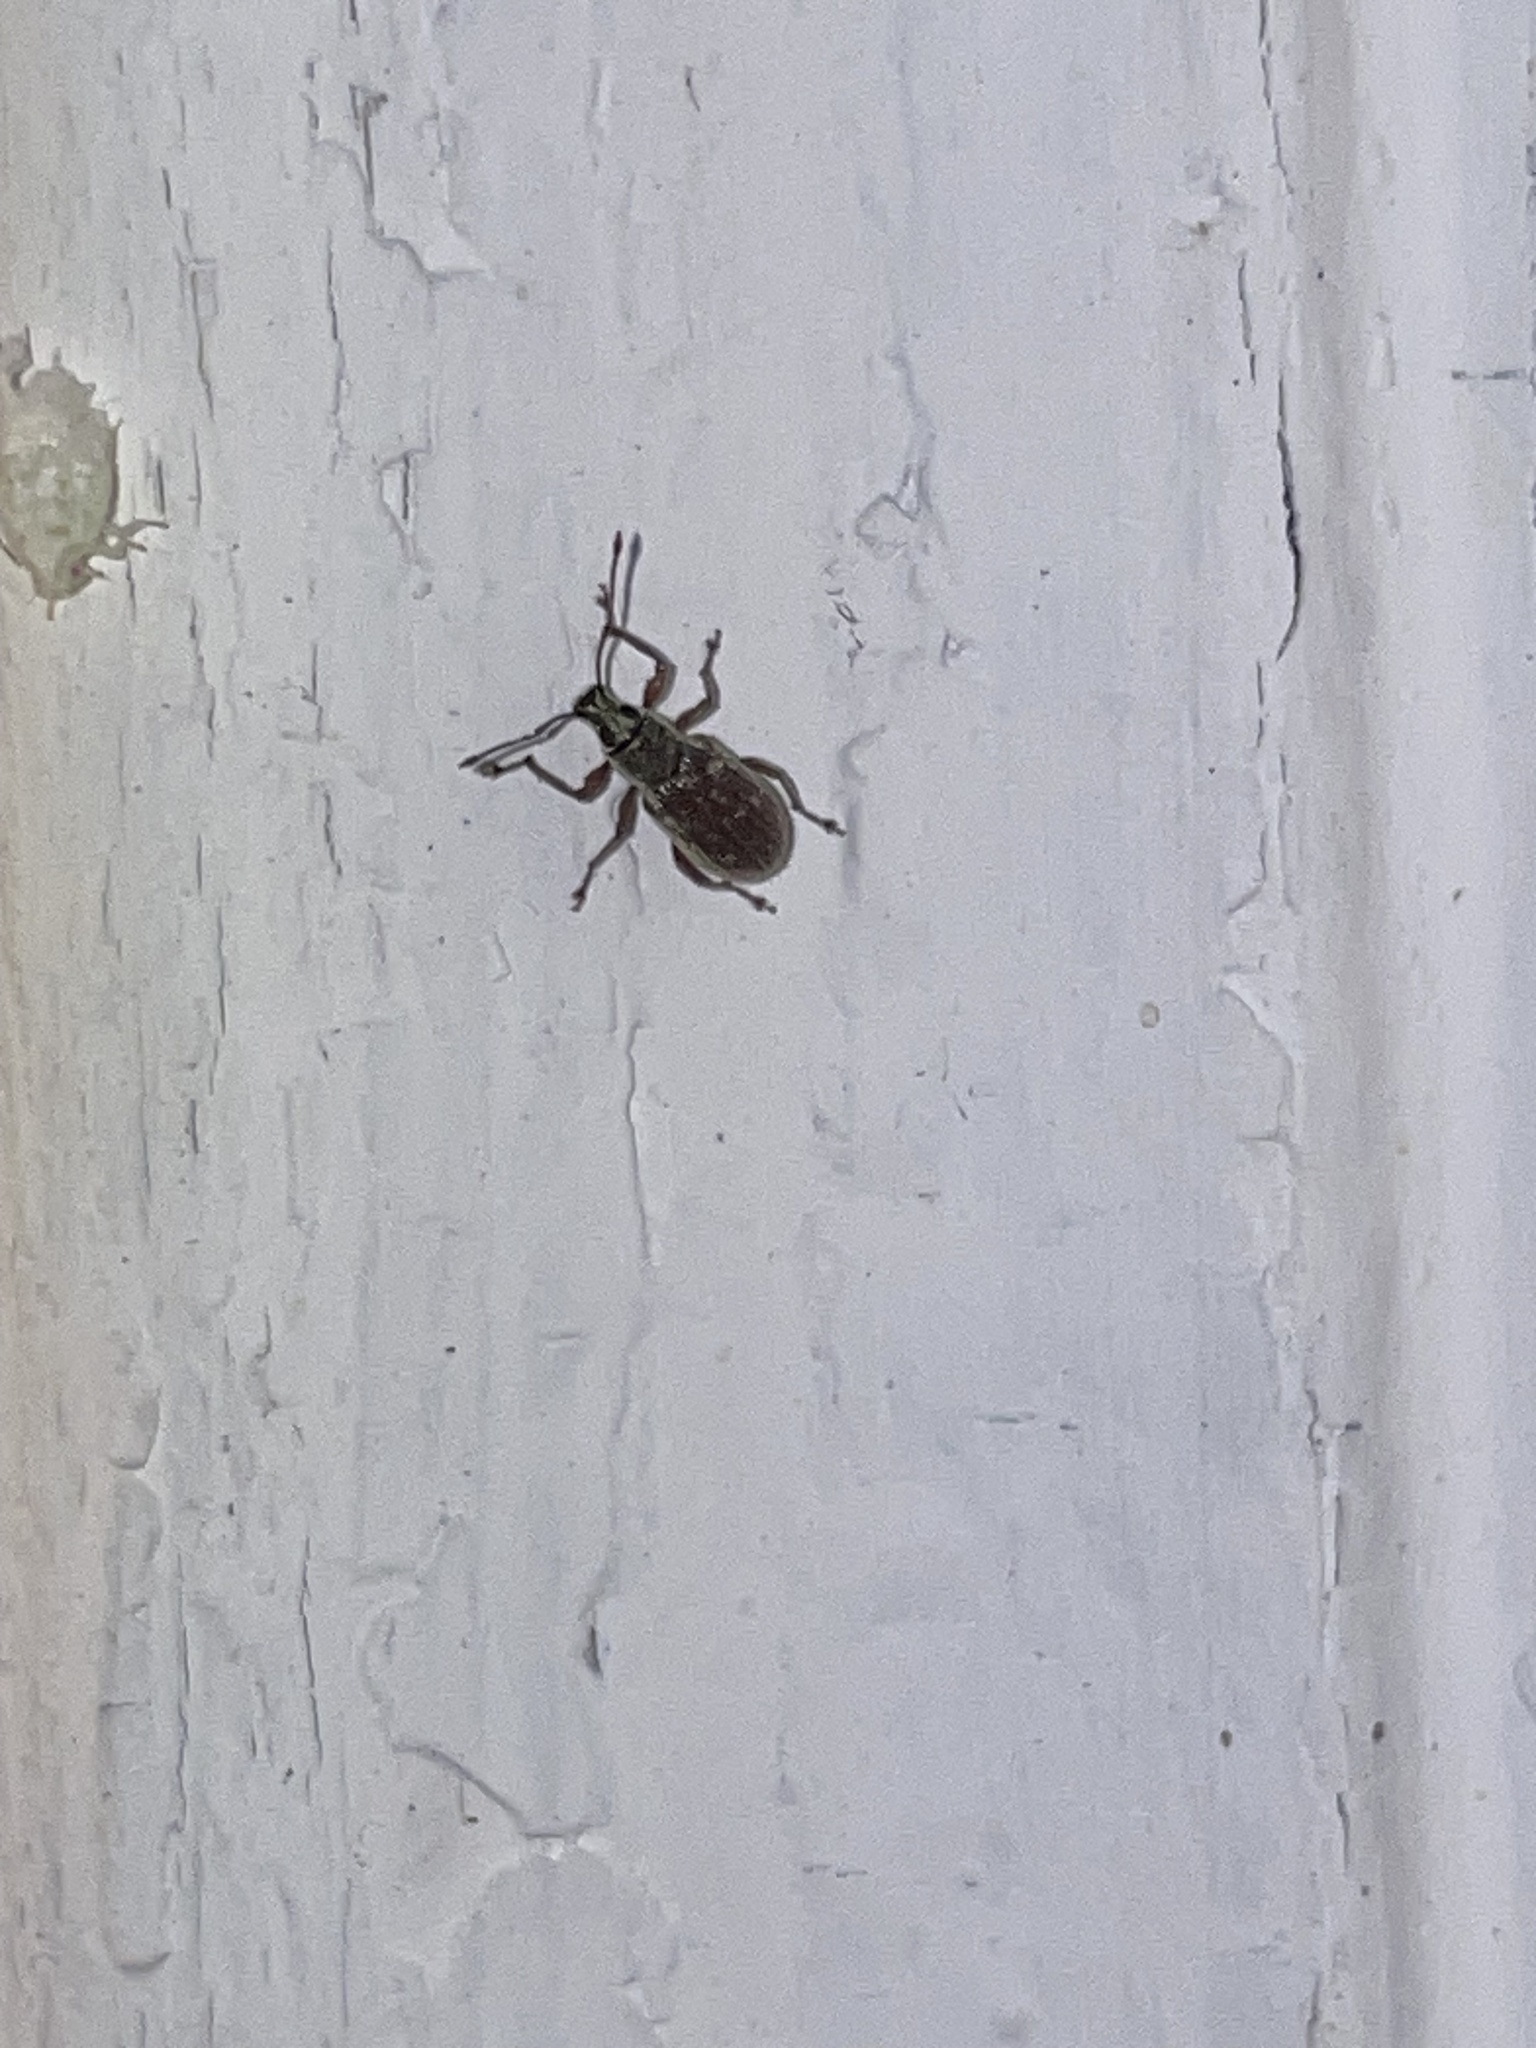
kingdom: Animalia
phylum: Arthropoda
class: Insecta
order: Coleoptera
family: Curculionidae
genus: Cyrtepistomus
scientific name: Cyrtepistomus castaneus
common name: Weevil
